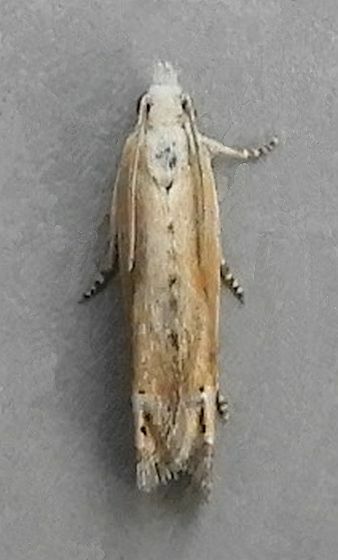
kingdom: Animalia
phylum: Arthropoda
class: Insecta
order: Lepidoptera
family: Tortricidae
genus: Eucosma
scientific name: Eucosma kiscana
